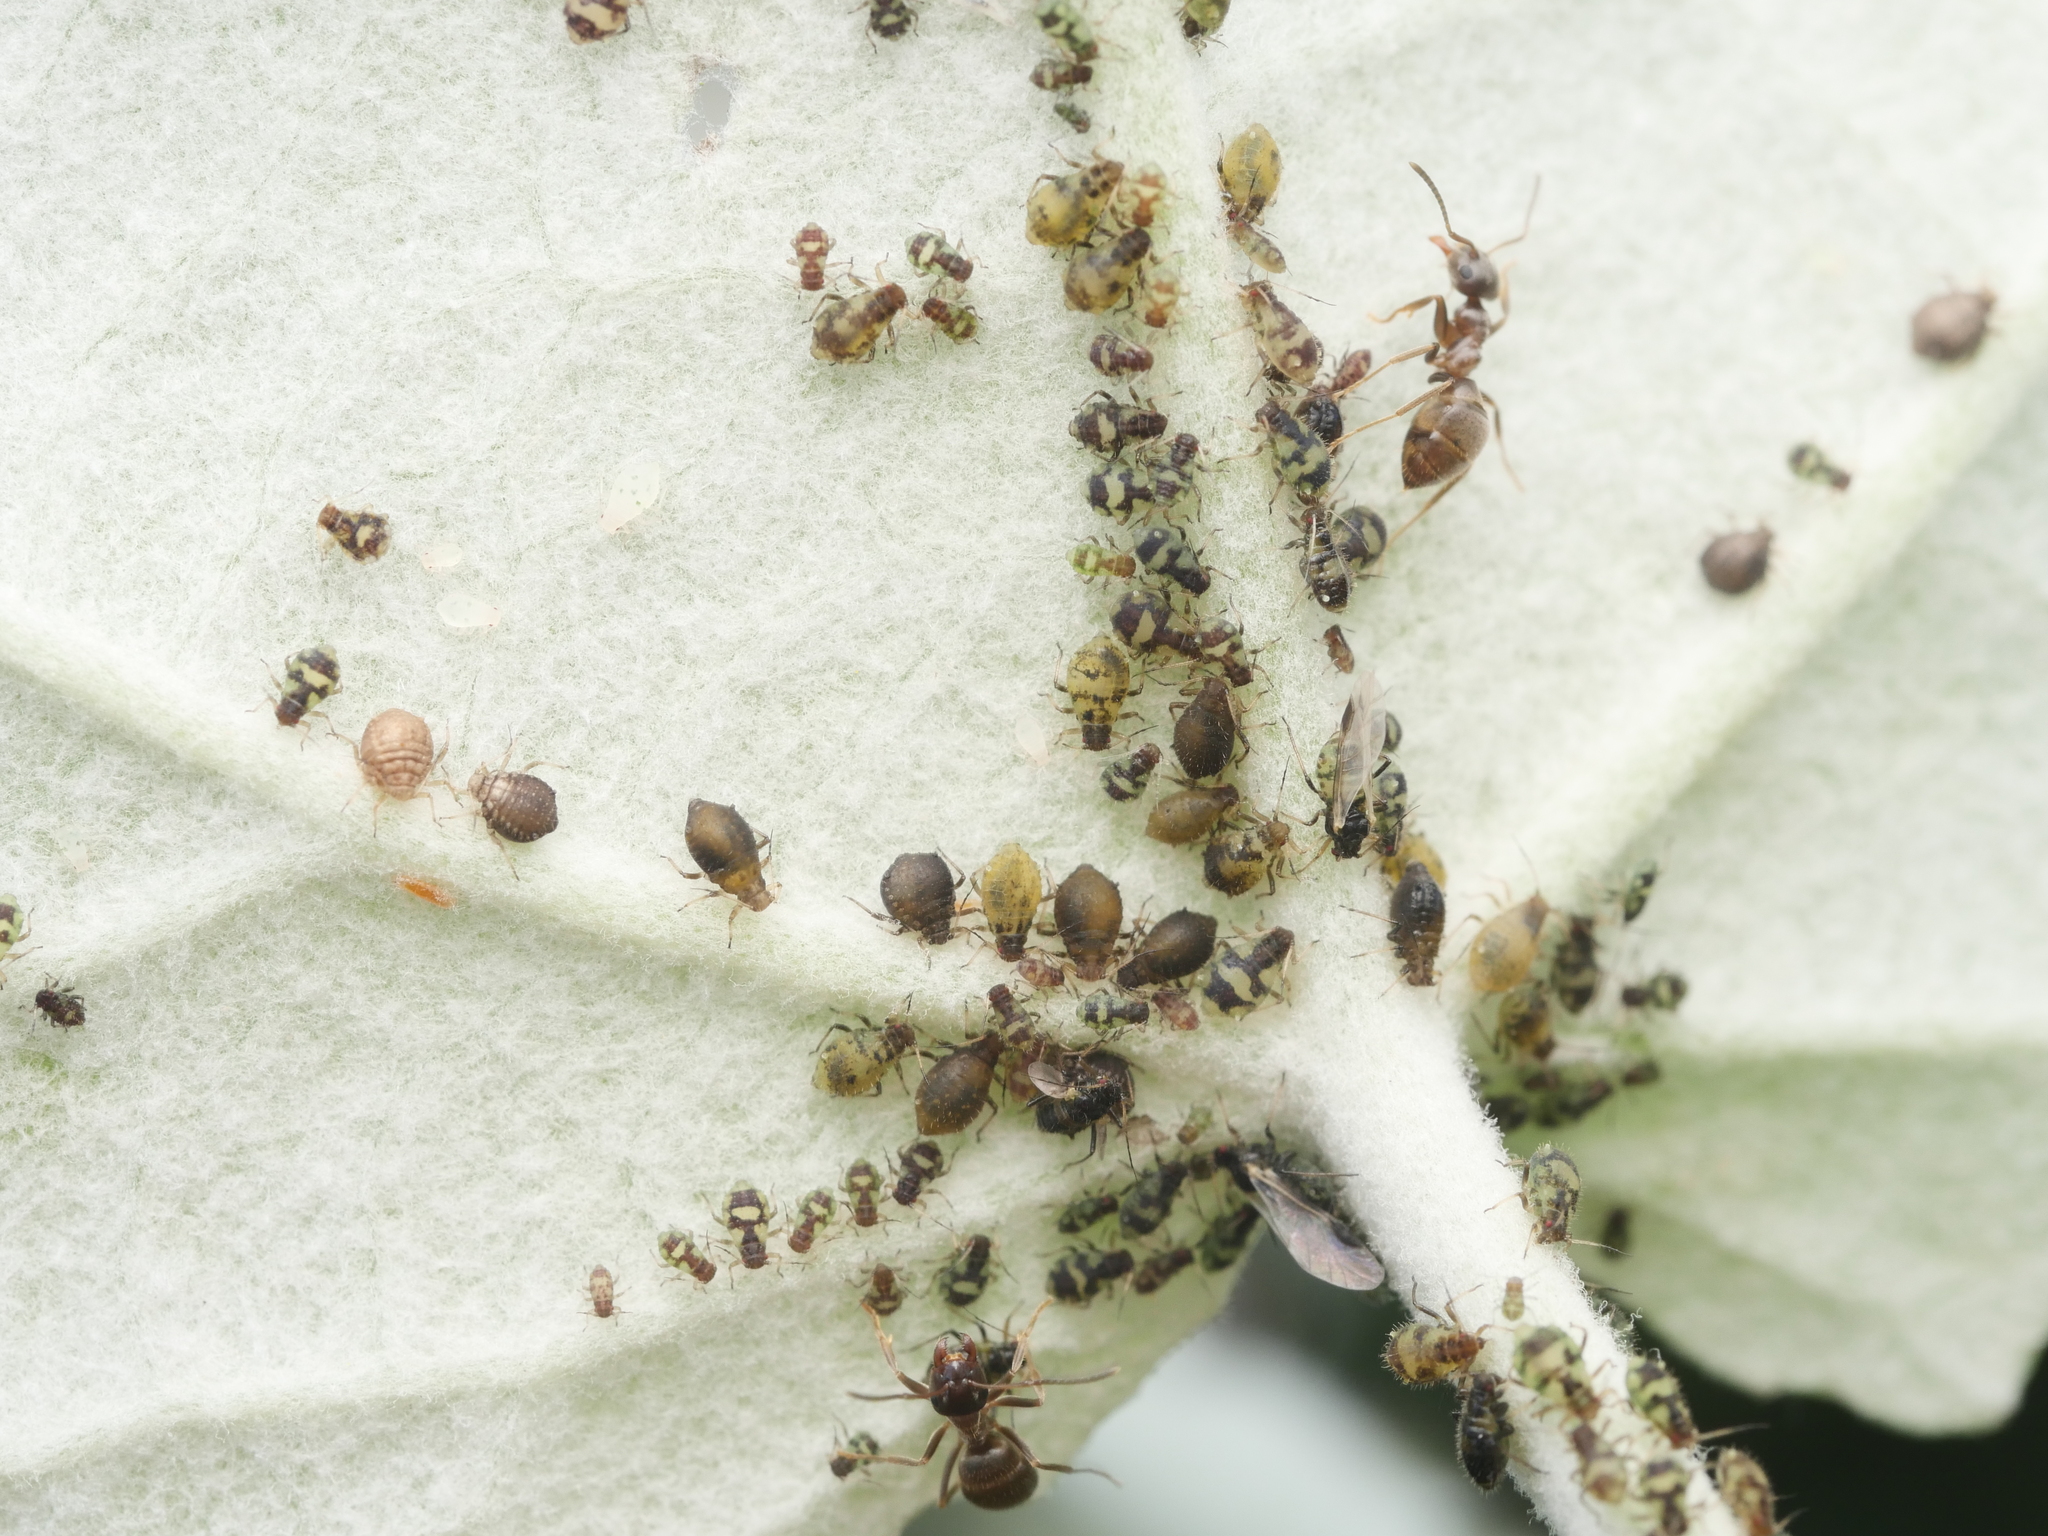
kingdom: Animalia
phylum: Arthropoda
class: Insecta
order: Hemiptera
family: Aphididae
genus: Chaitophorus
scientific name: Chaitophorus populeti
